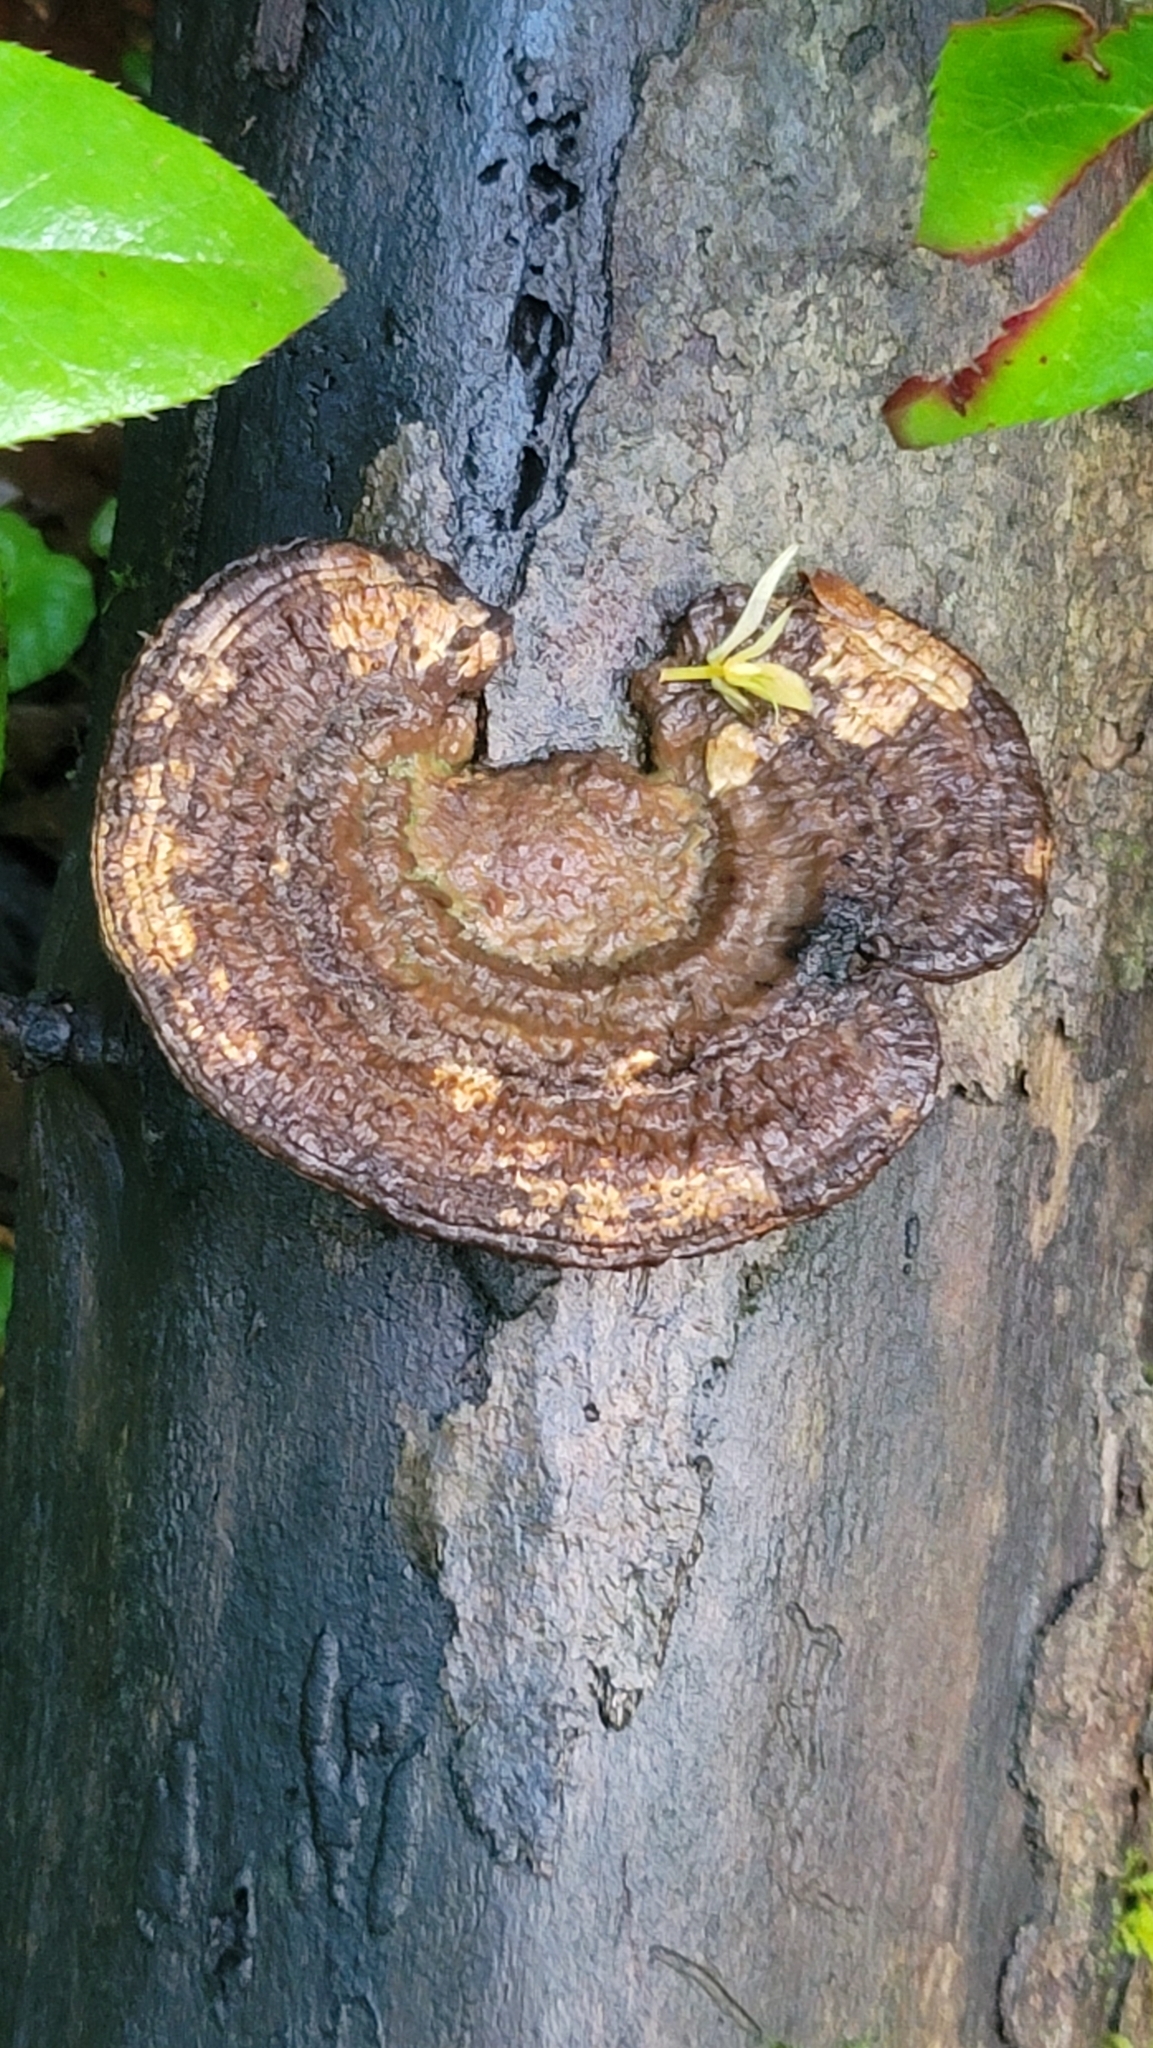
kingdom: Fungi
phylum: Basidiomycota
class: Agaricomycetes
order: Polyporales
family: Polyporaceae
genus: Daedaleopsis
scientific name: Daedaleopsis confragosa
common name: Blushing bracket
